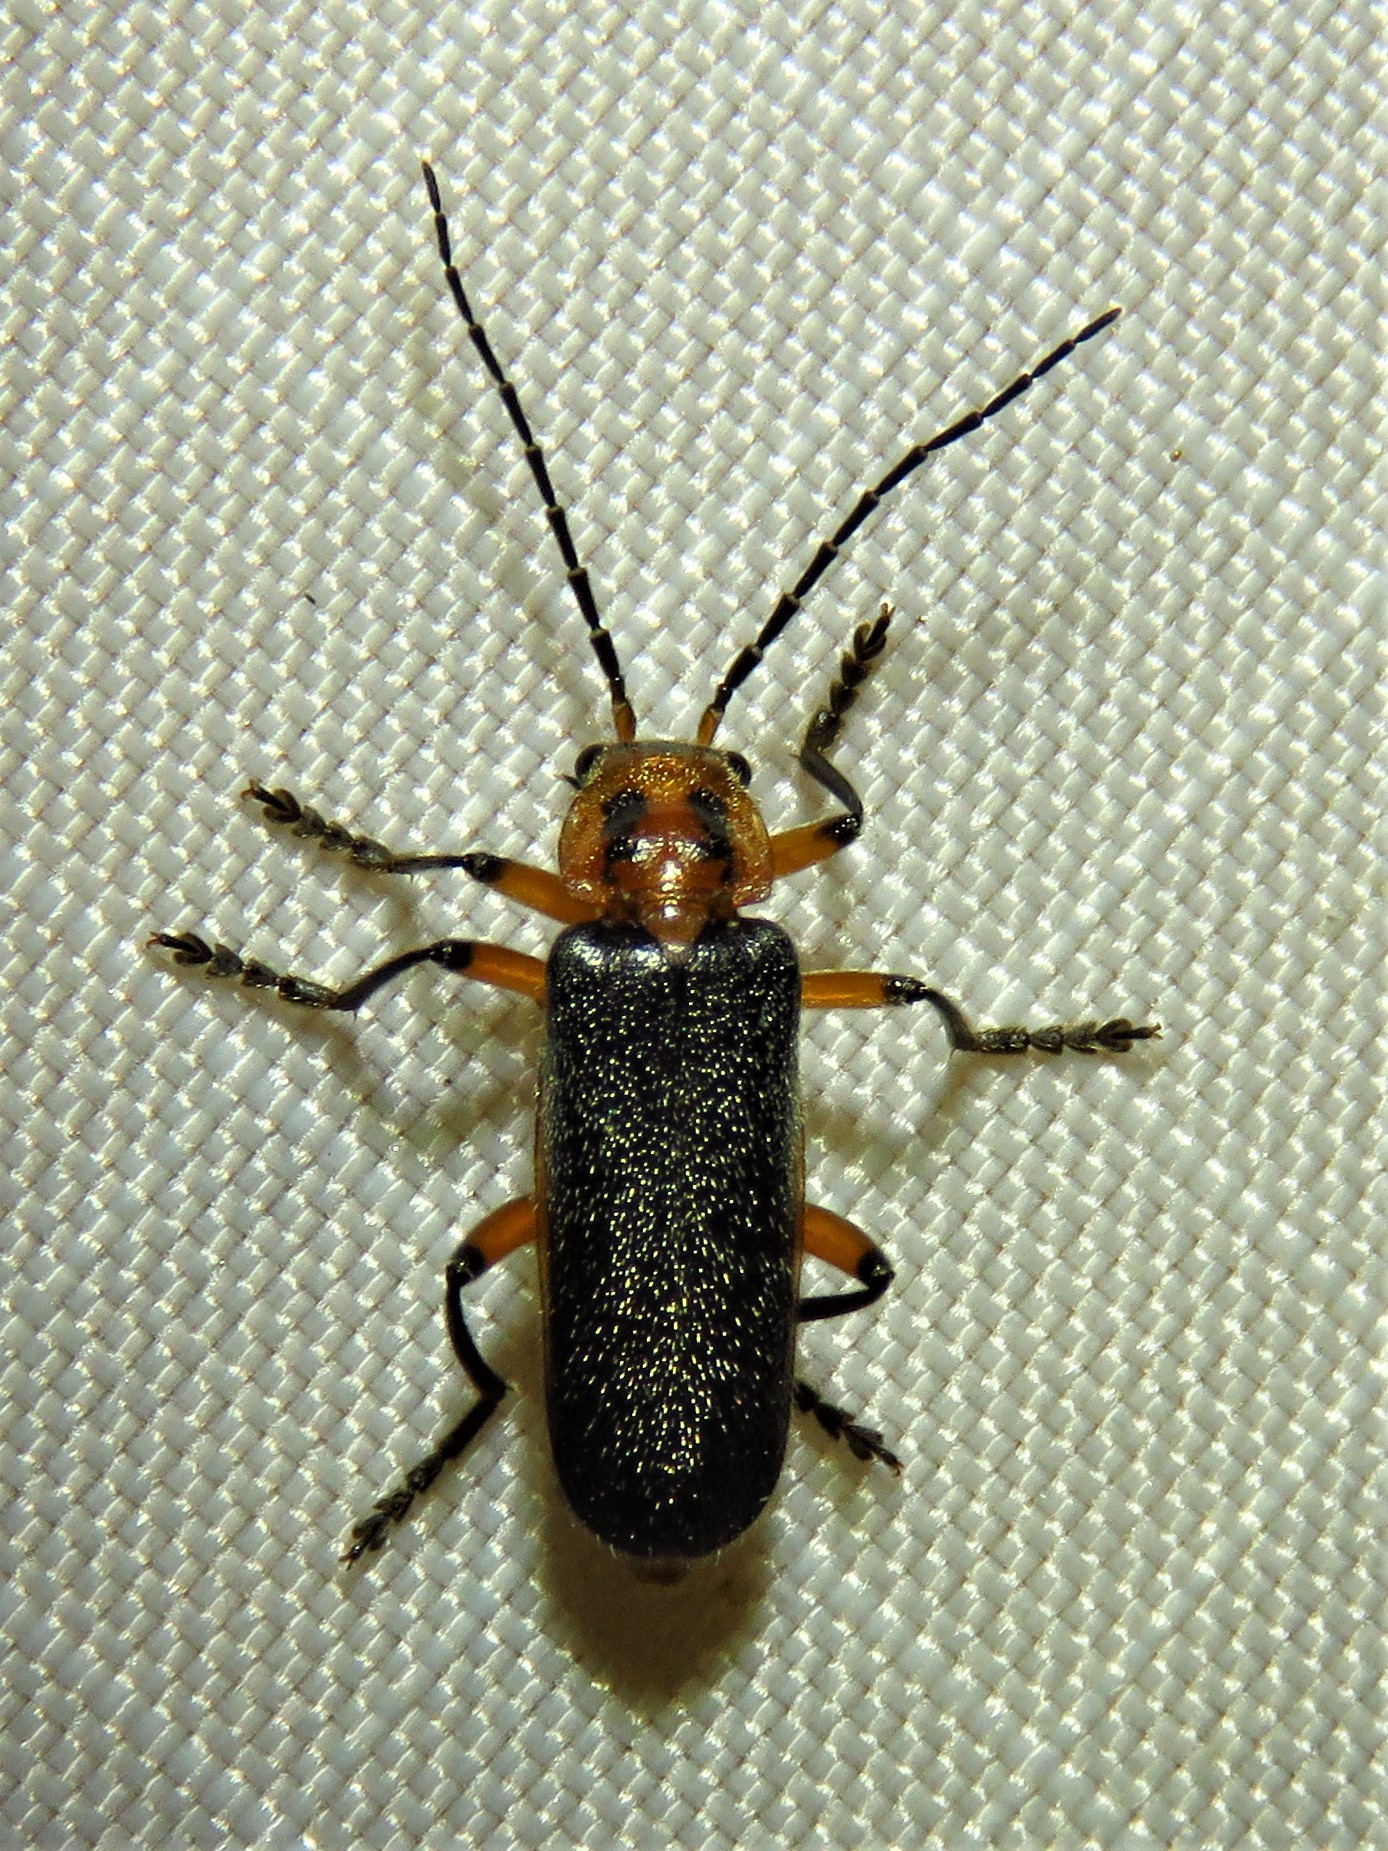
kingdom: Animalia
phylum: Arthropoda
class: Insecta
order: Coleoptera
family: Cantharidae
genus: Atalantycha
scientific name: Atalantycha bilineata
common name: Two-lined leatherwing
